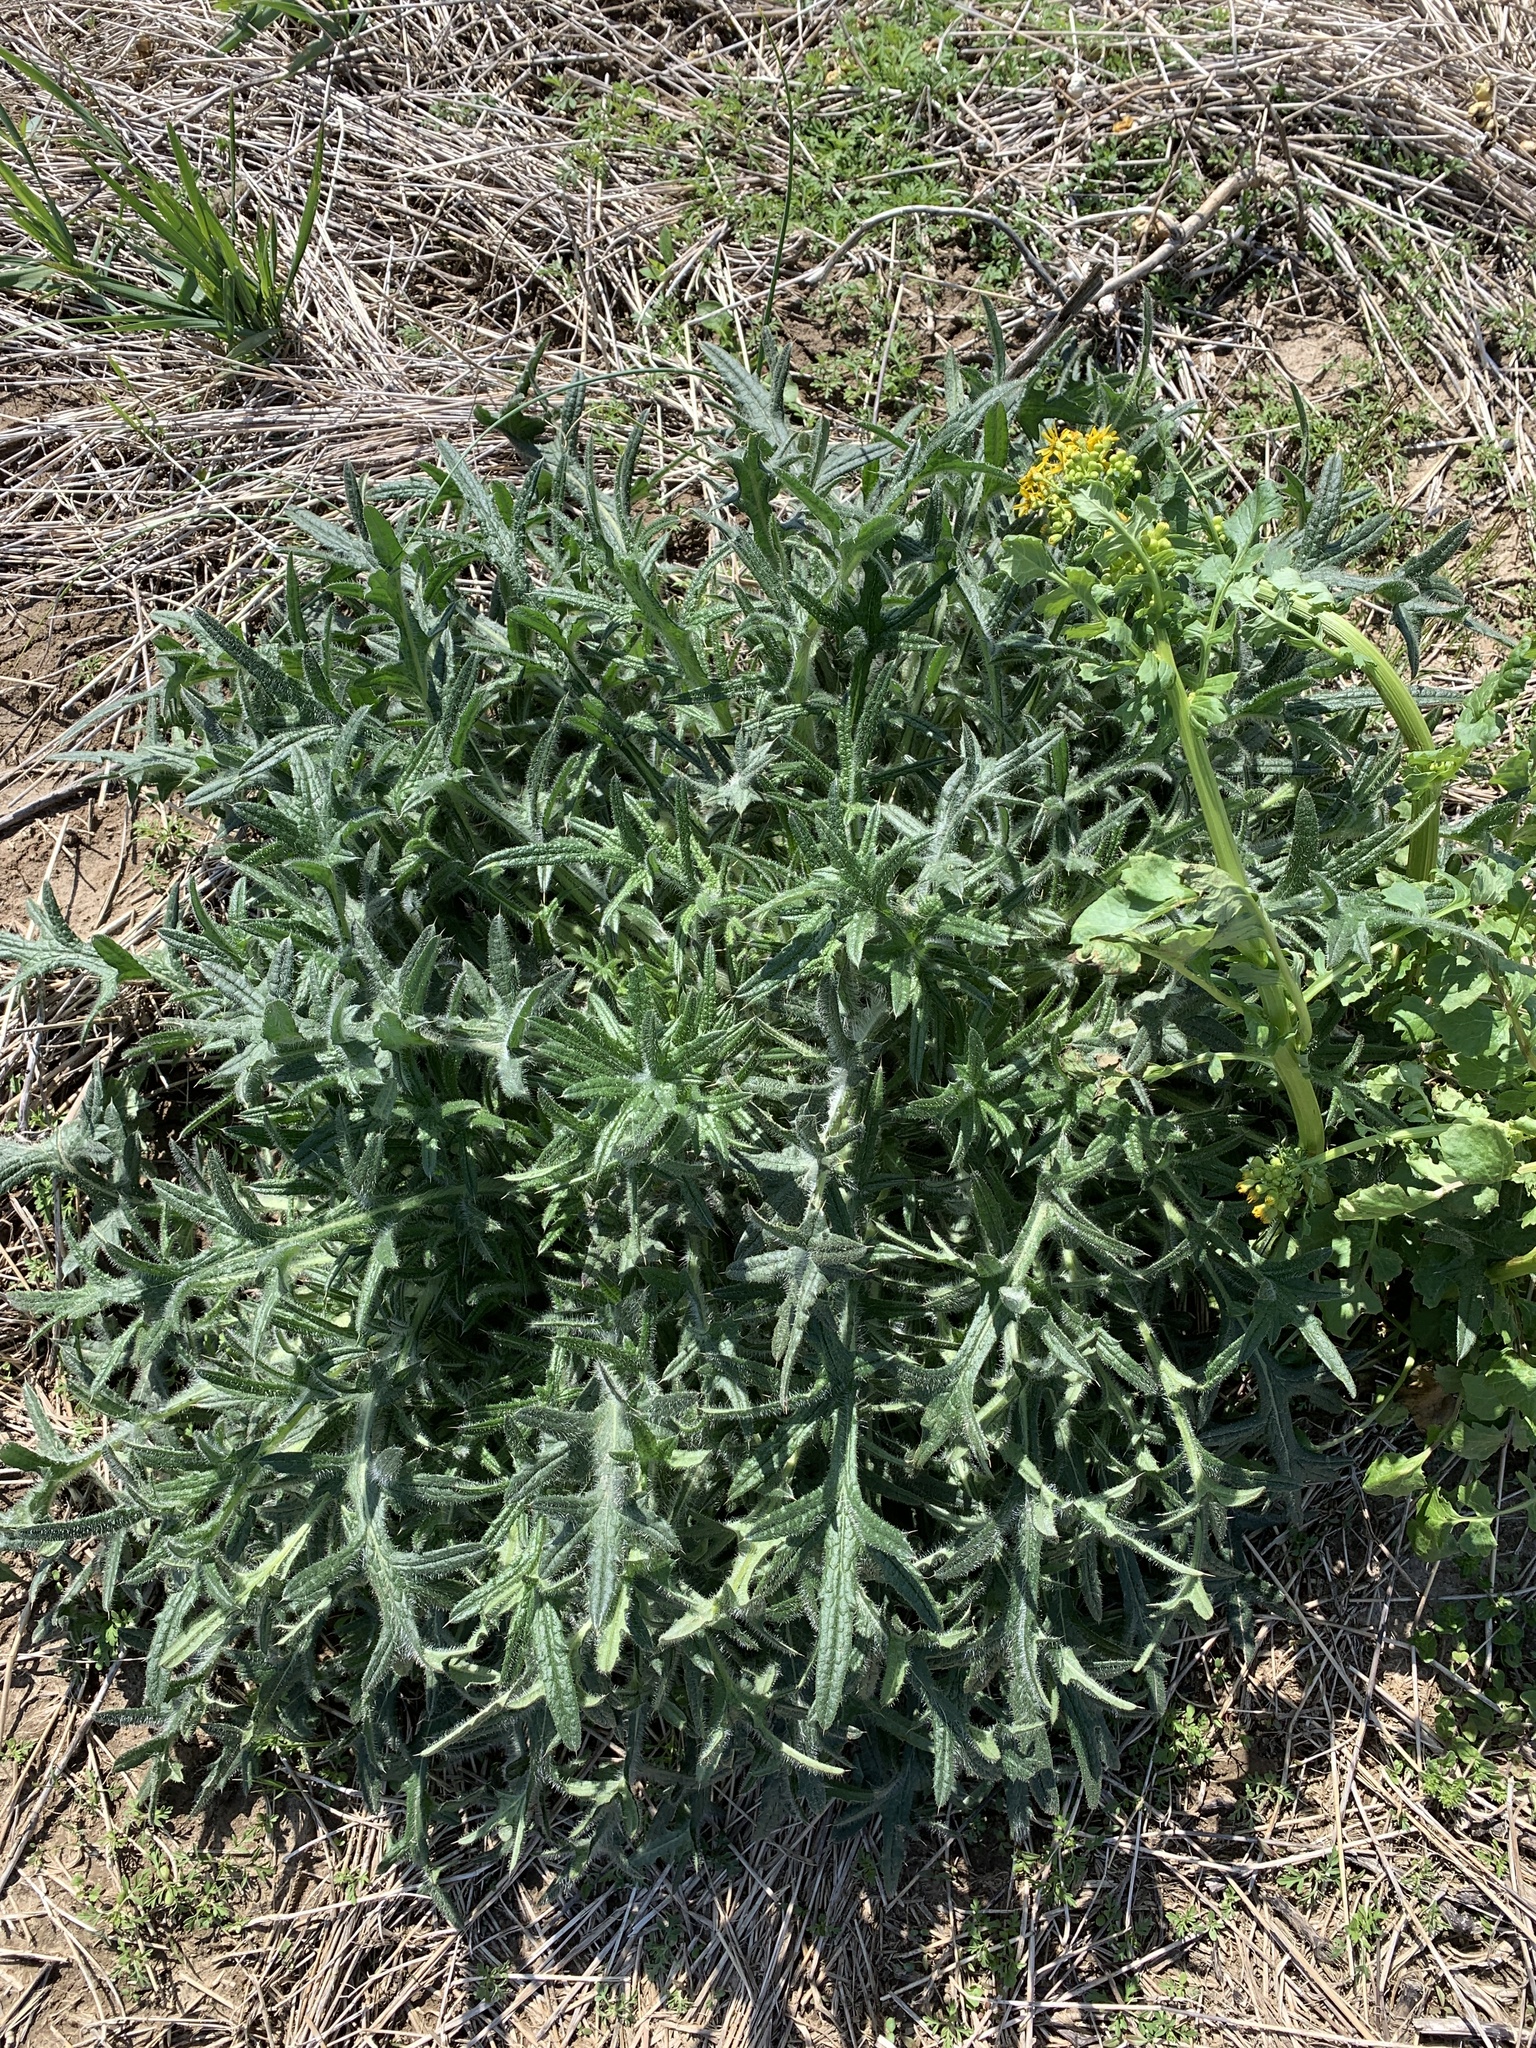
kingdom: Plantae
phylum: Tracheophyta
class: Magnoliopsida
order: Asterales
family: Asteraceae
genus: Cirsium
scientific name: Cirsium vulgare
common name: Bull thistle
